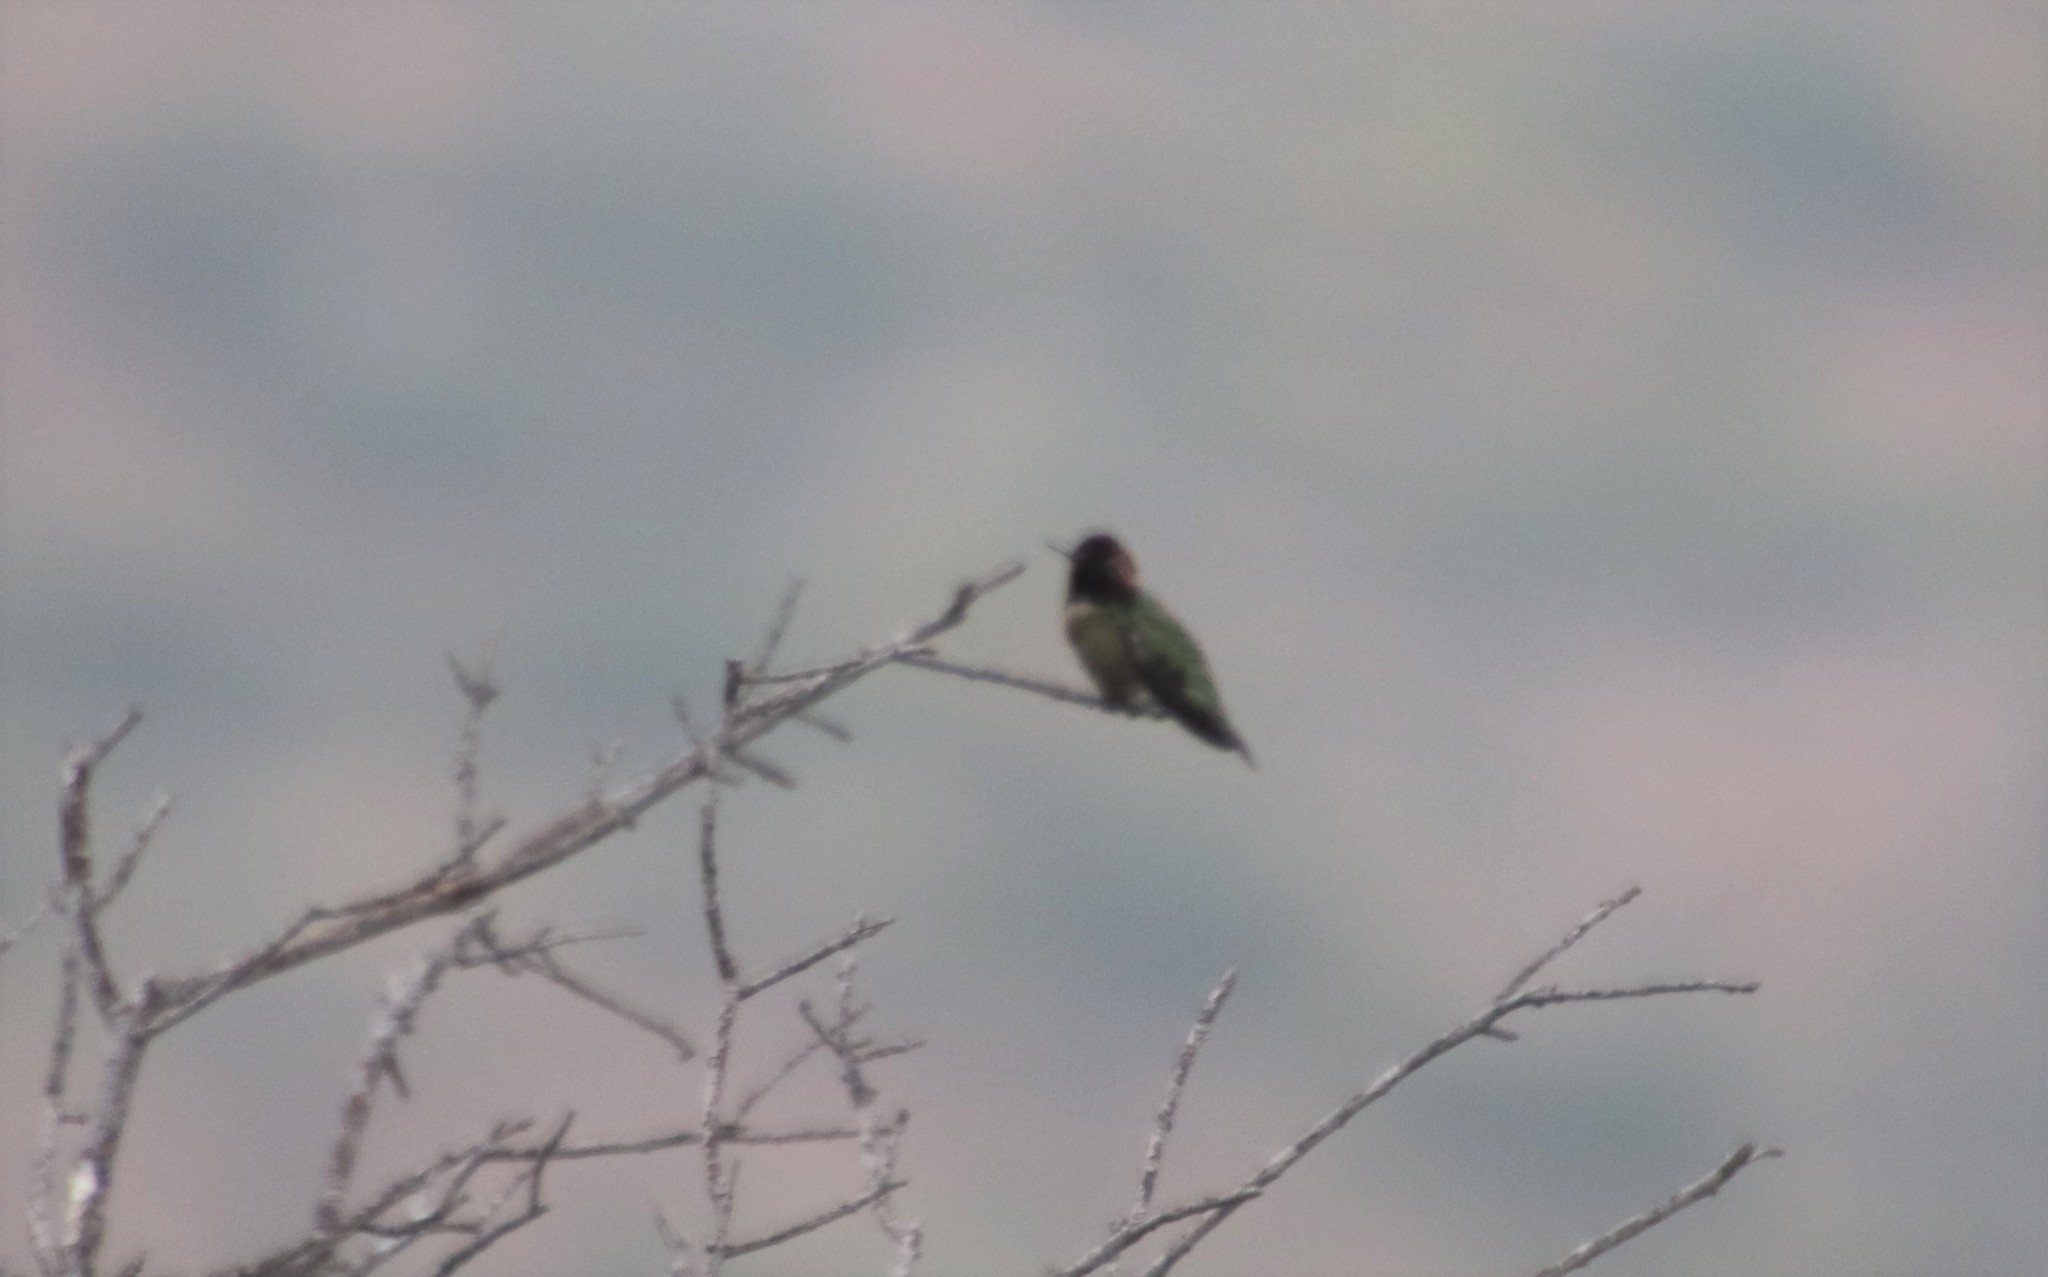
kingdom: Animalia
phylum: Chordata
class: Aves
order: Apodiformes
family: Trochilidae
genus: Calypte
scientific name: Calypte anna
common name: Anna's hummingbird
